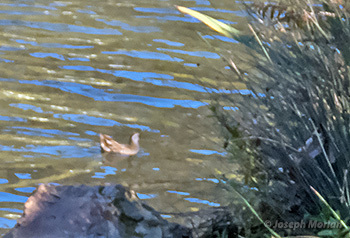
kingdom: Animalia
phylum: Chordata
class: Aves
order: Gruiformes
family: Rallidae
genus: Porzana
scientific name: Porzana carolina
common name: Sora
